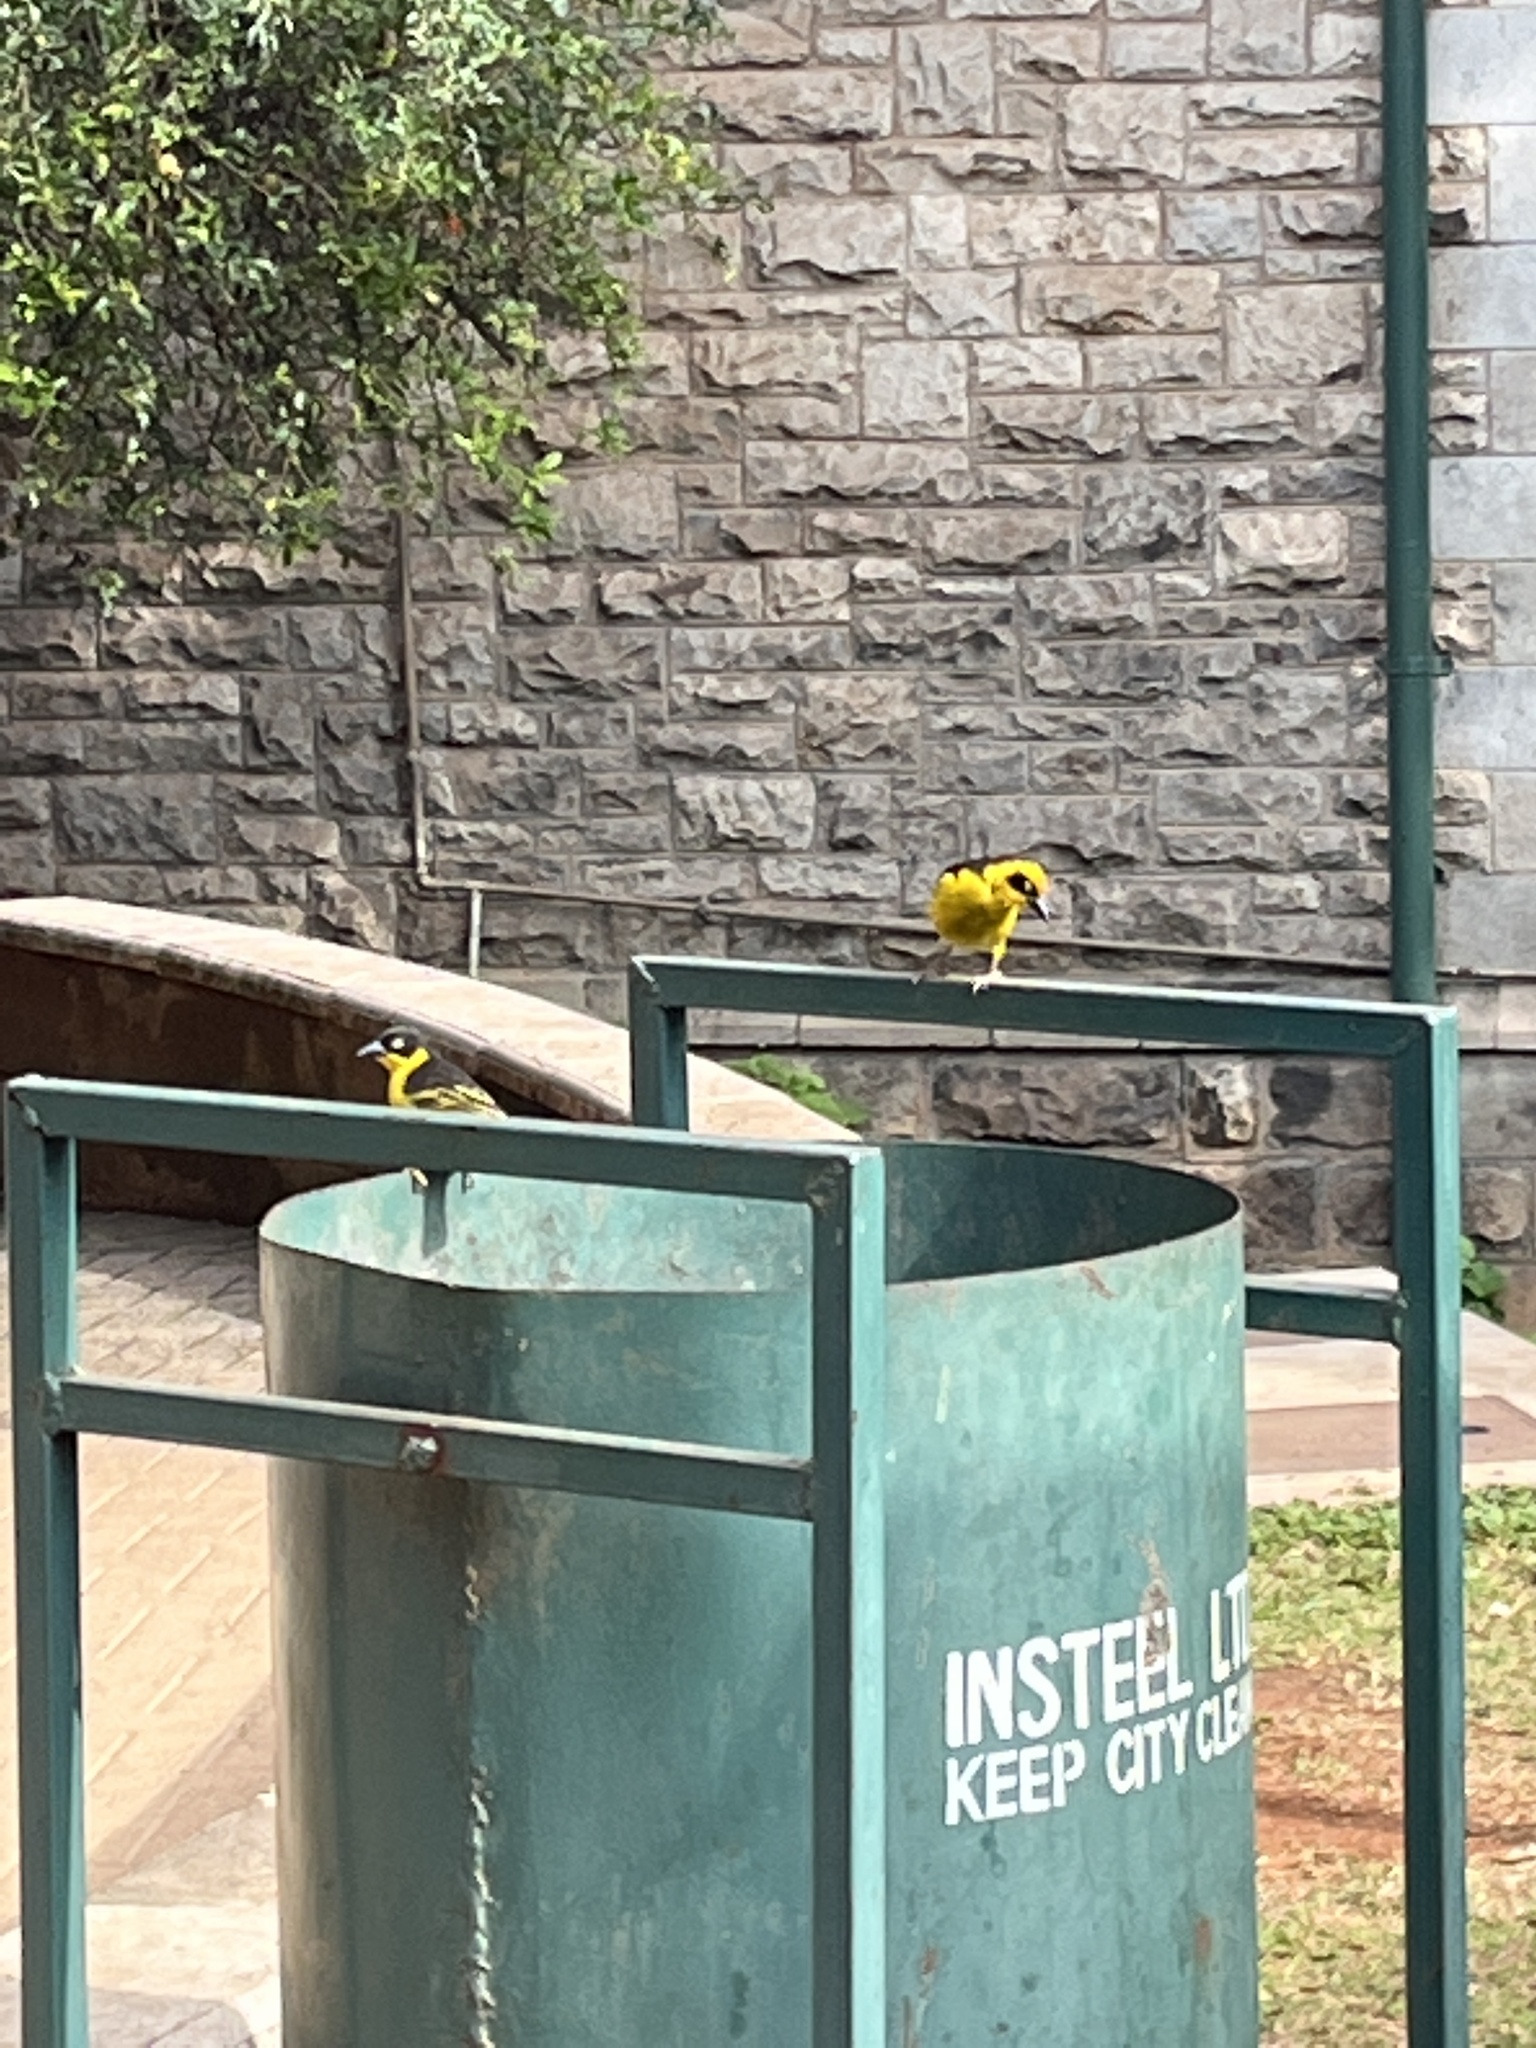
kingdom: Animalia
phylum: Chordata
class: Aves
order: Passeriformes
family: Ploceidae
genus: Ploceus
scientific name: Ploceus baglafecht
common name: Baglafecht weaver
